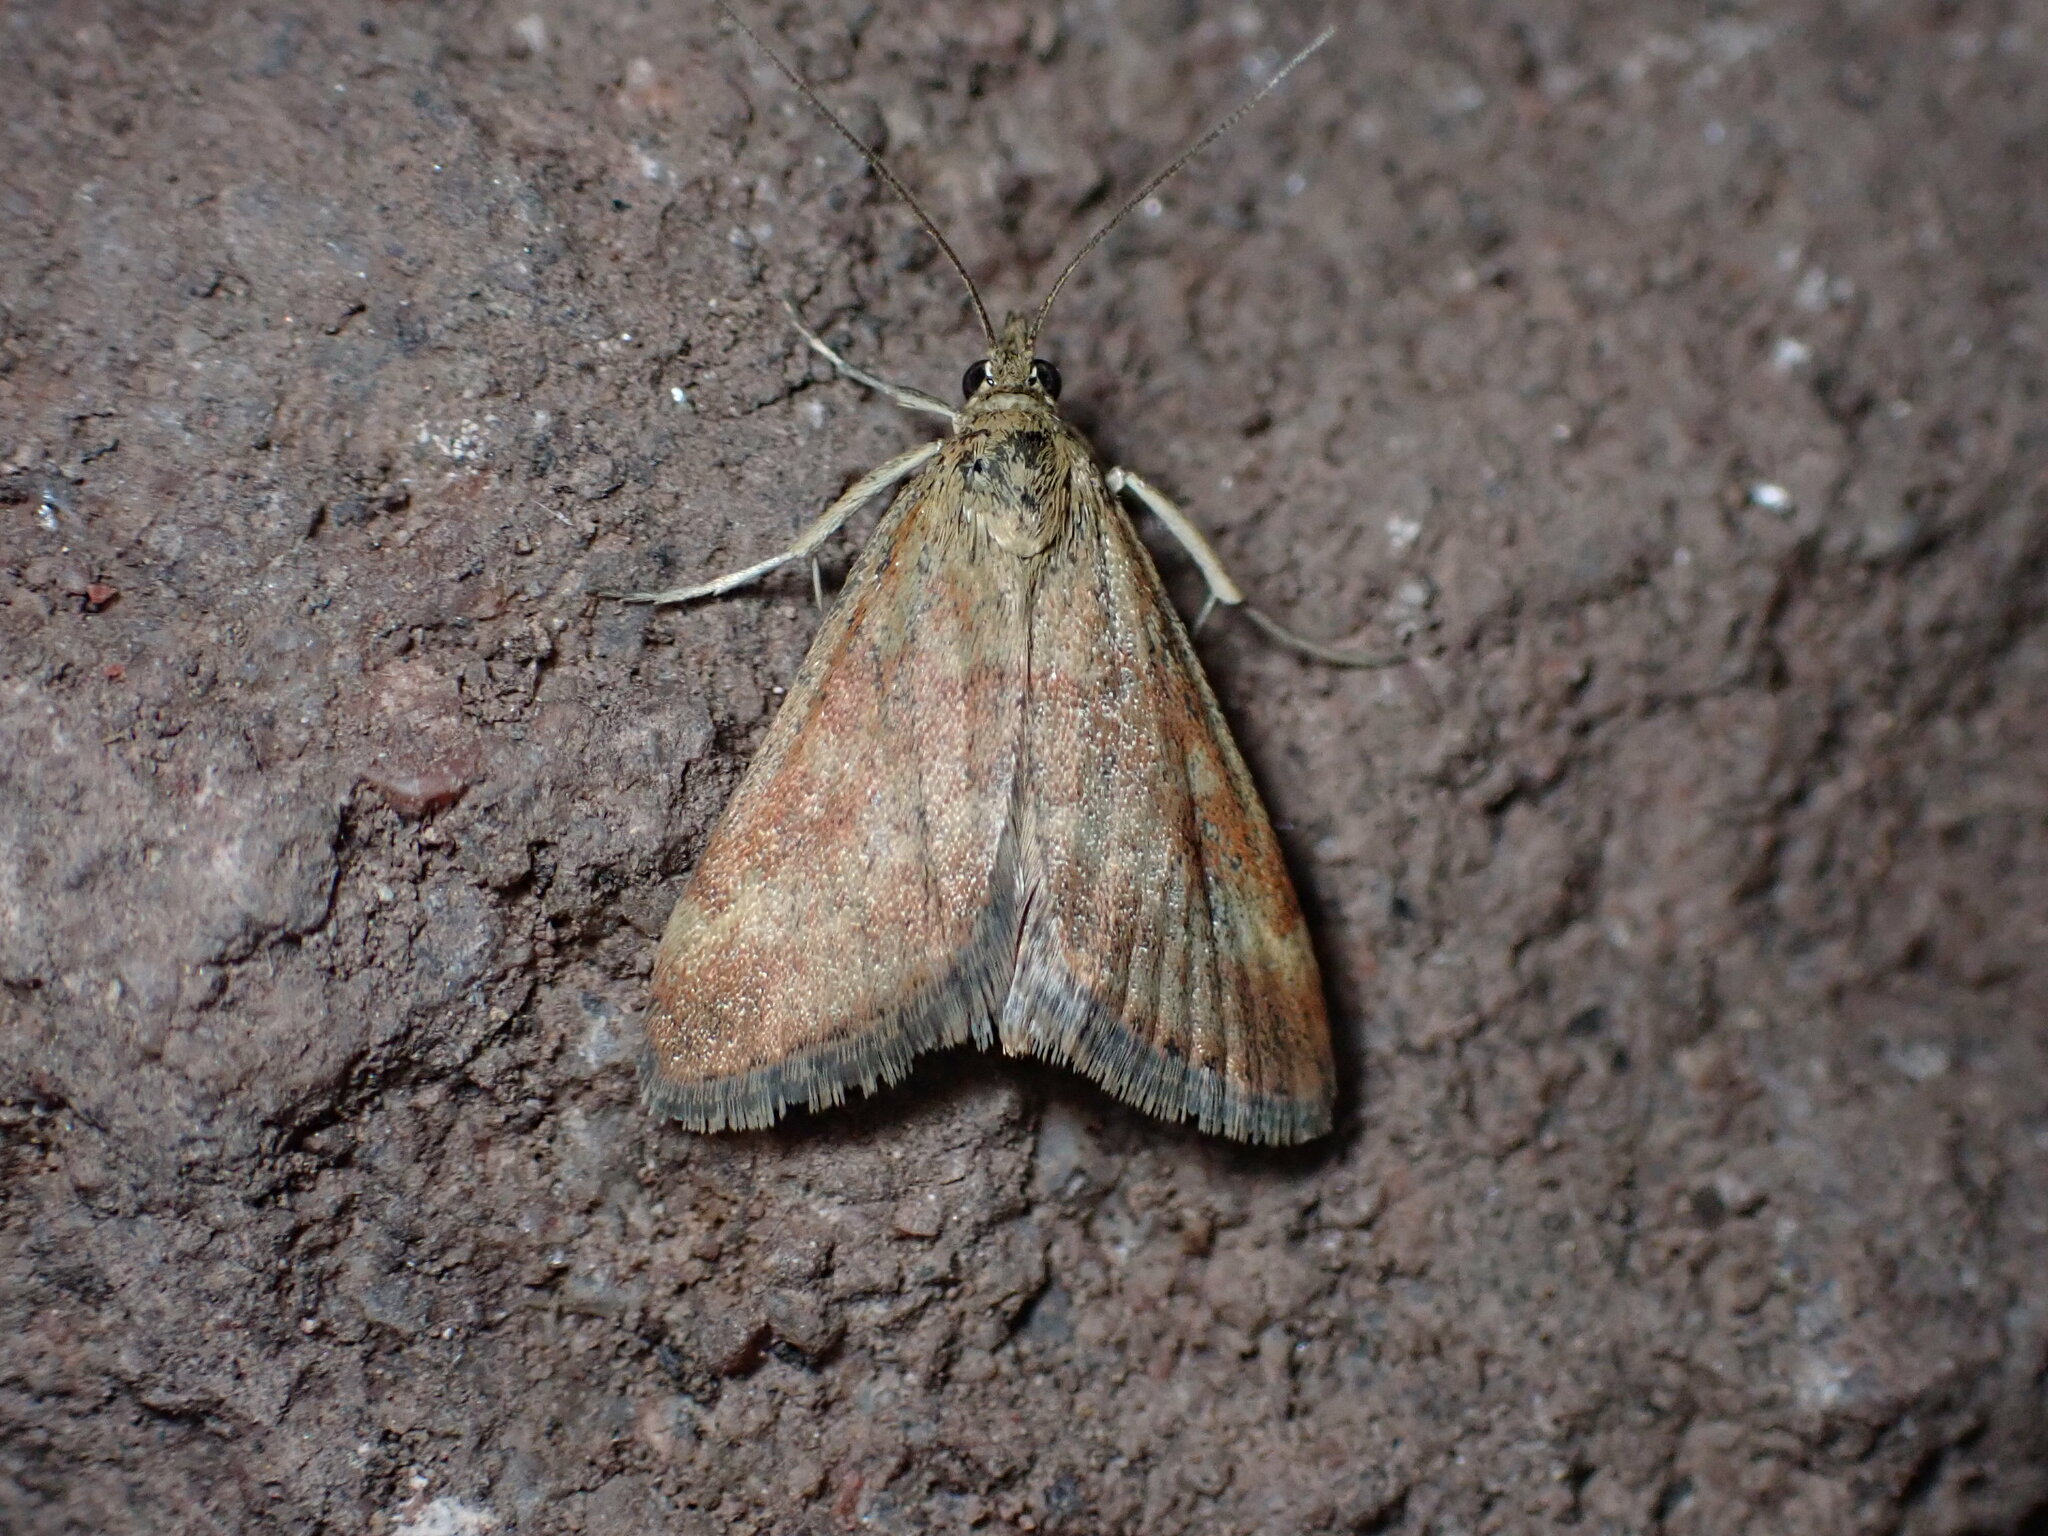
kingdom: Animalia
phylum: Arthropoda
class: Insecta
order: Lepidoptera
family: Crambidae
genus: Pyrausta
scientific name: Pyrausta despicata
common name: Straw-barred pearl
